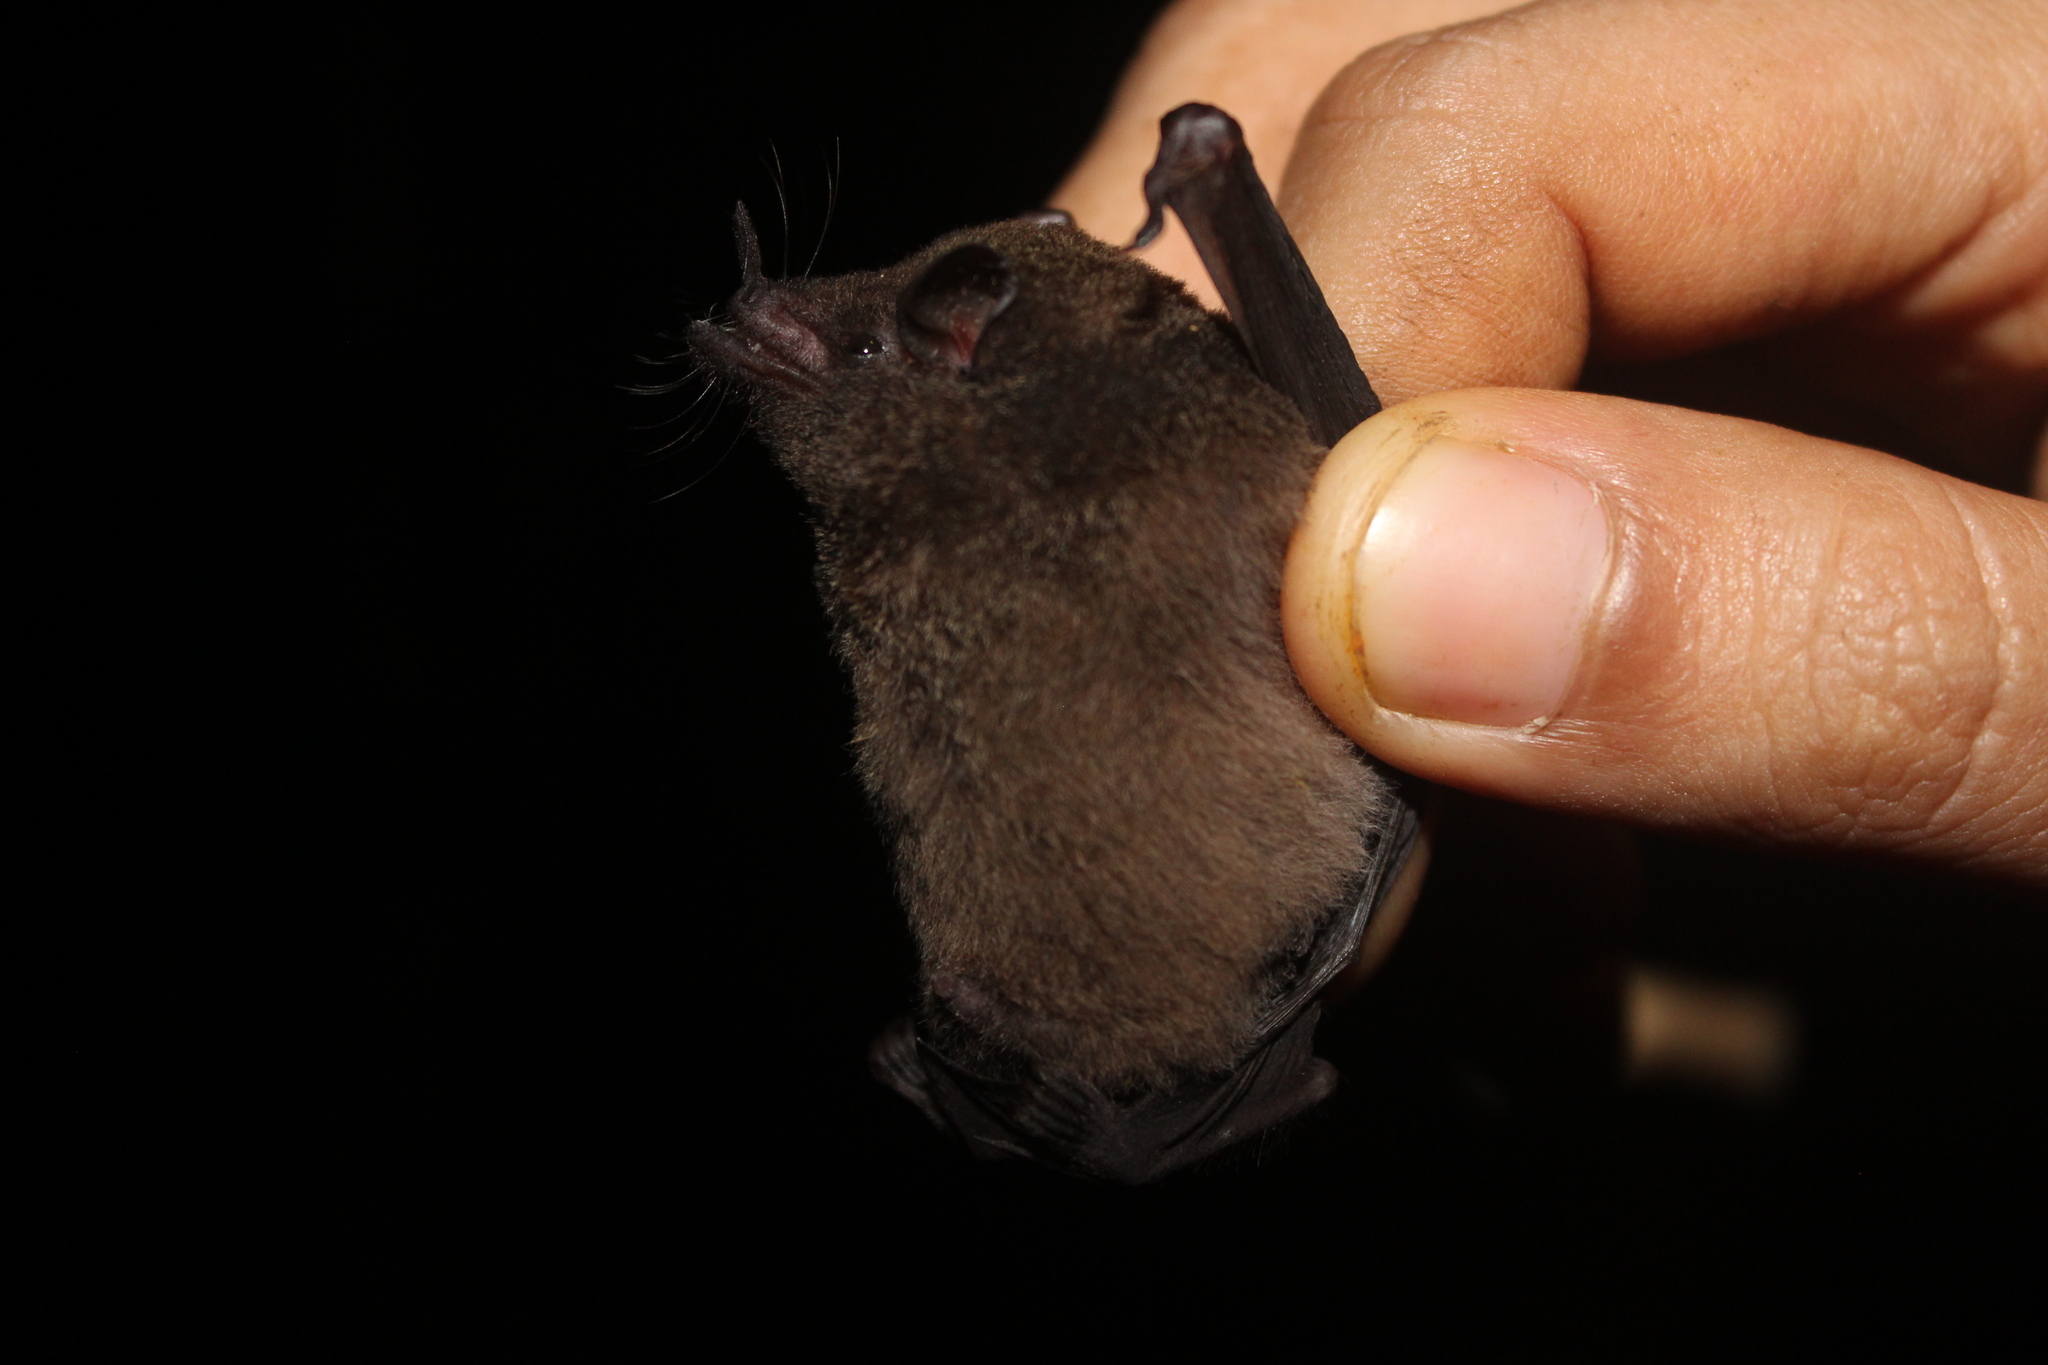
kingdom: Animalia
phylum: Chordata
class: Mammalia
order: Chiroptera
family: Phyllostomidae
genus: Hylonycteris
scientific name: Hylonycteris underwoodi
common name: Underwood's long-tongued bat
